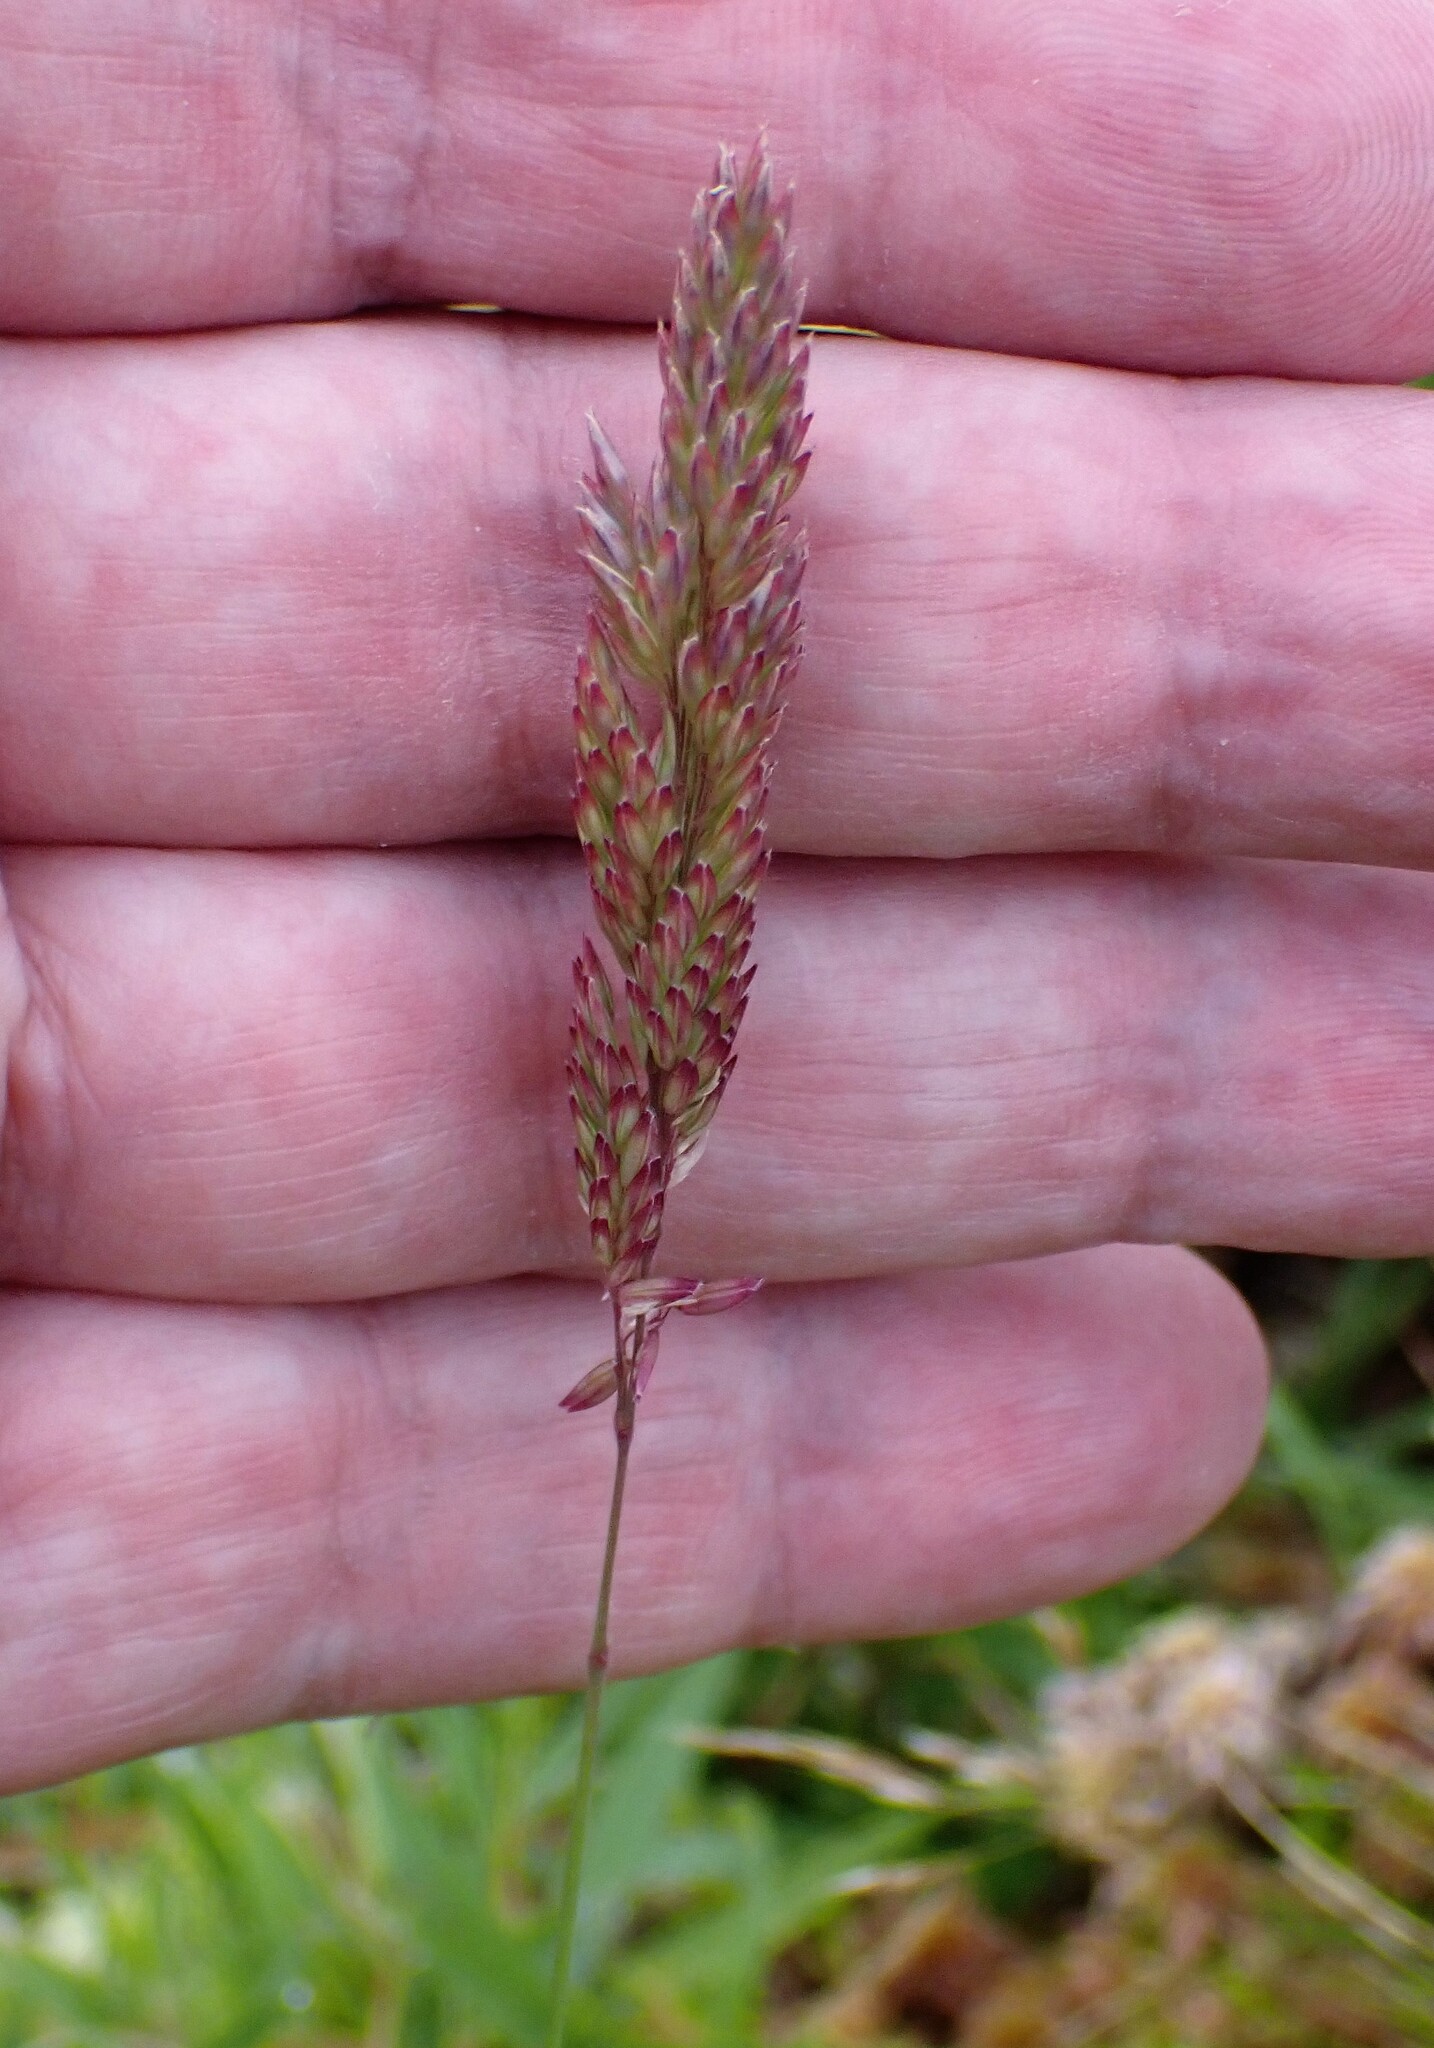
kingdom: Plantae
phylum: Tracheophyta
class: Liliopsida
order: Poales
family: Poaceae
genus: Holcus
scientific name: Holcus rigidus
